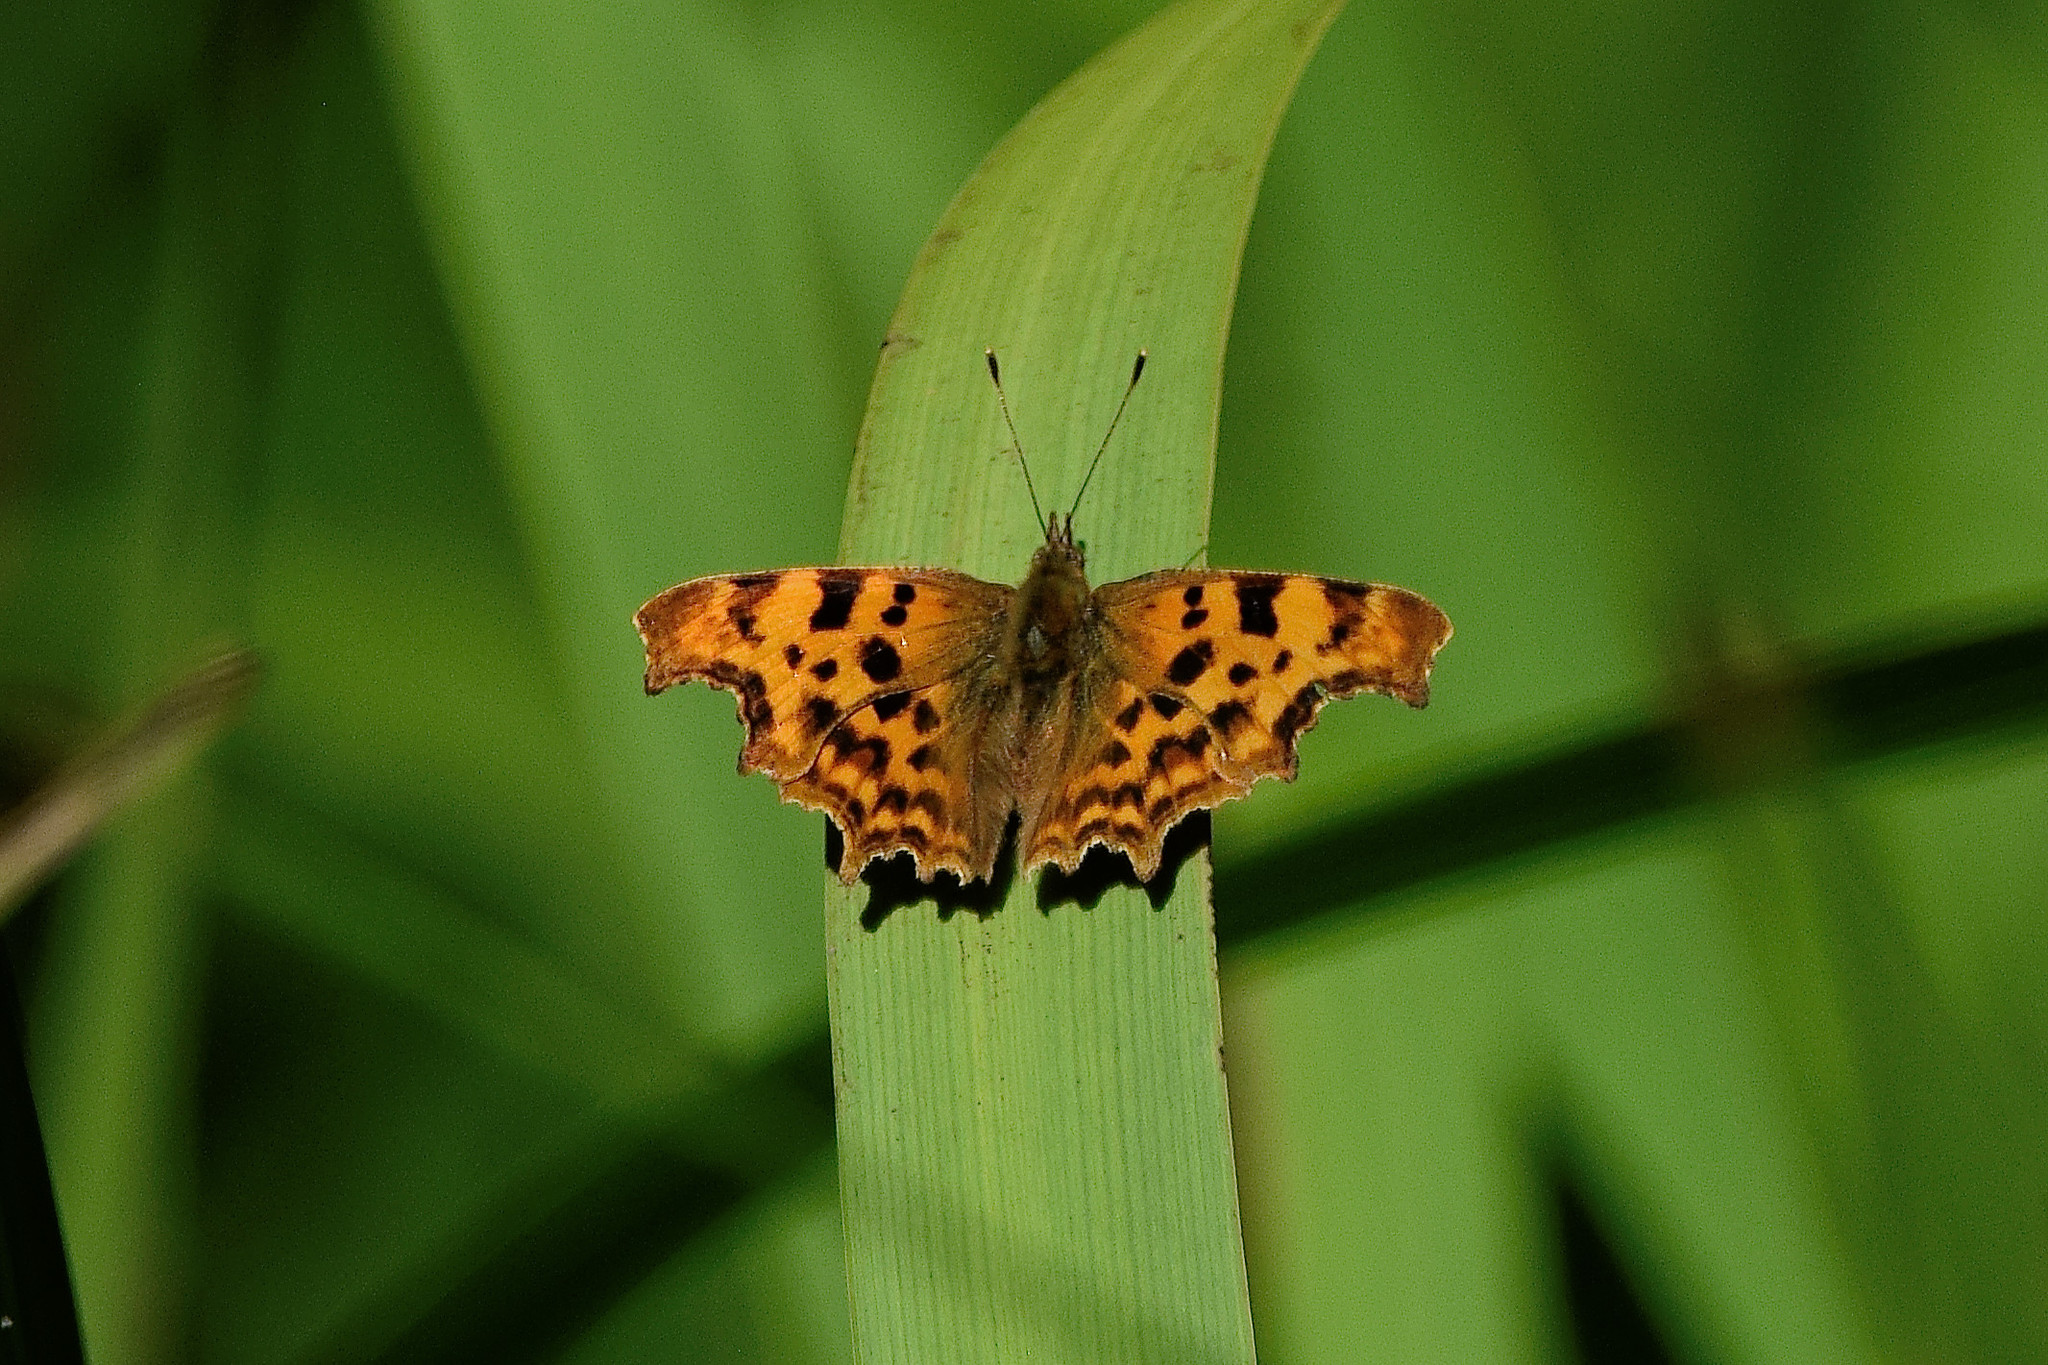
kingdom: Animalia
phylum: Arthropoda
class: Insecta
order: Lepidoptera
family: Nymphalidae
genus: Polygonia
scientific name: Polygonia c-album
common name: Comma
